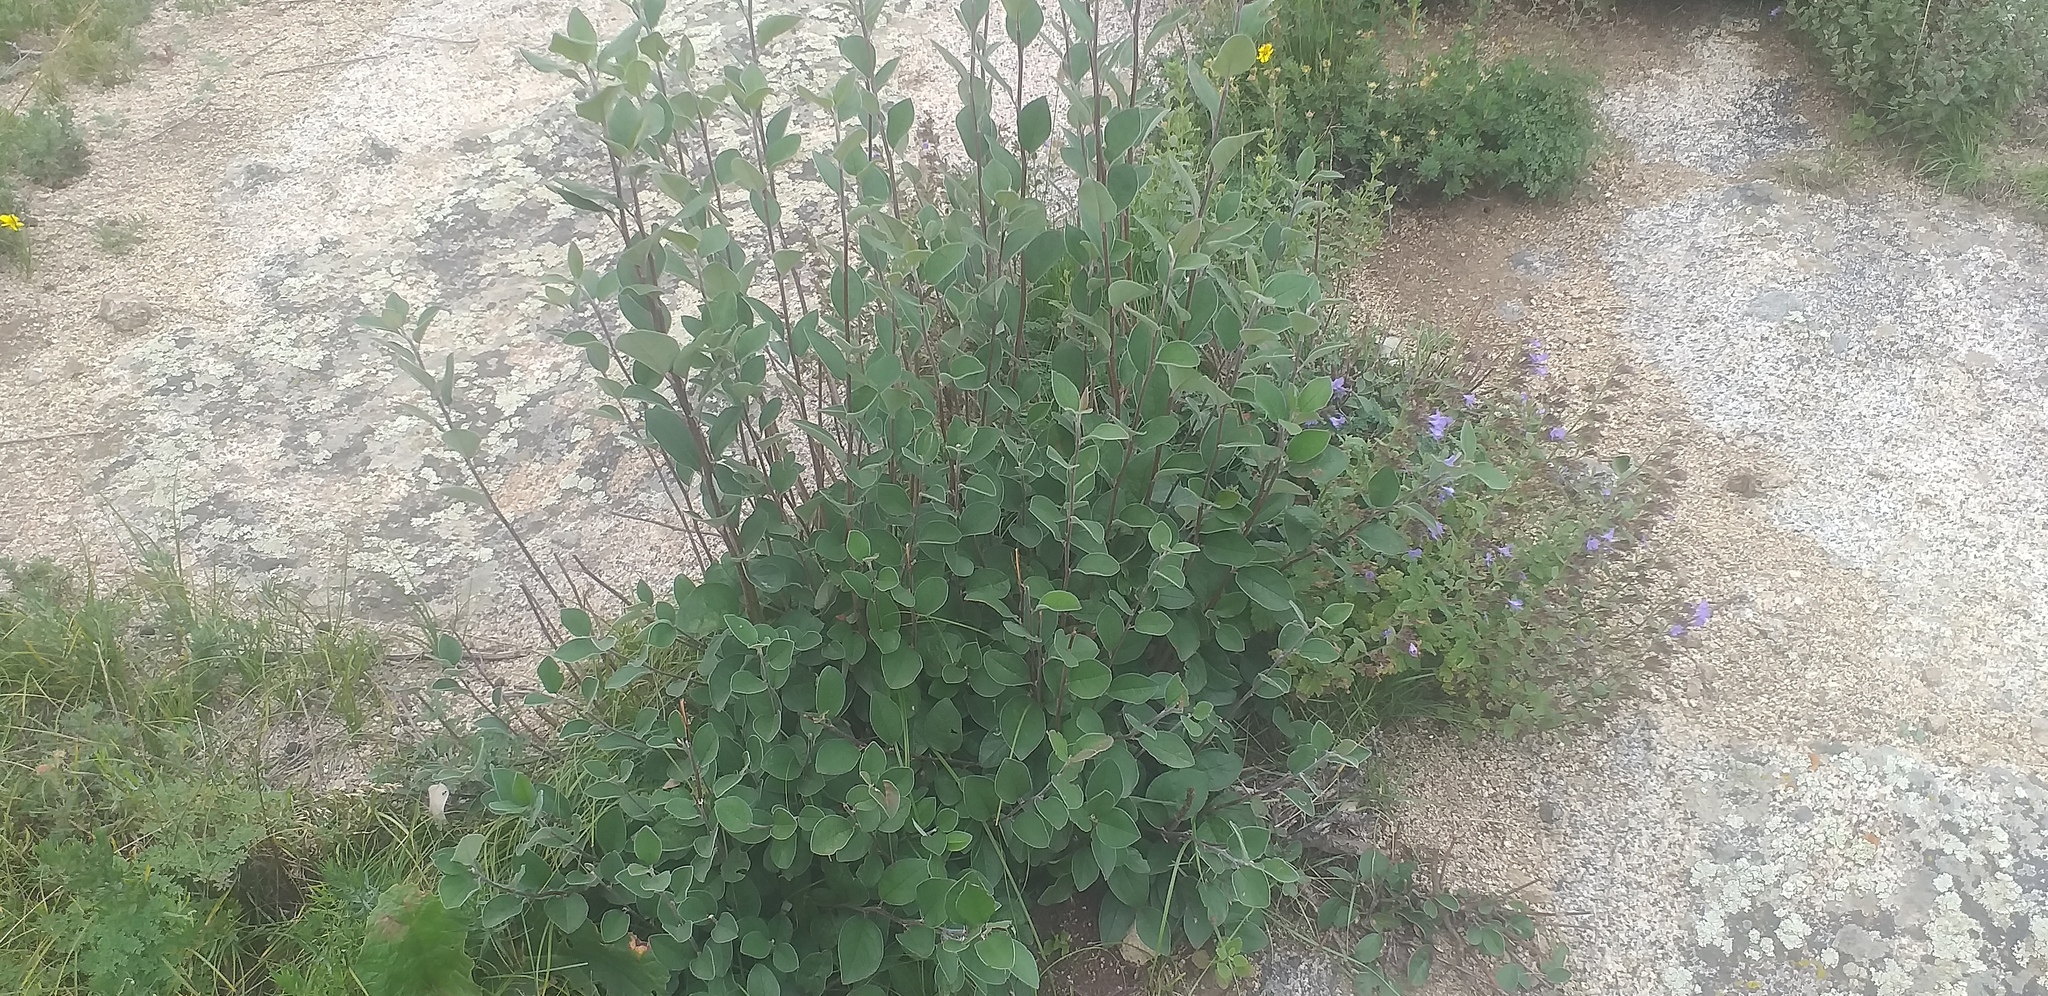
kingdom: Plantae
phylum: Tracheophyta
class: Magnoliopsida
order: Rosales
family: Rosaceae
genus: Cotoneaster
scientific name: Cotoneaster melanocarpus
